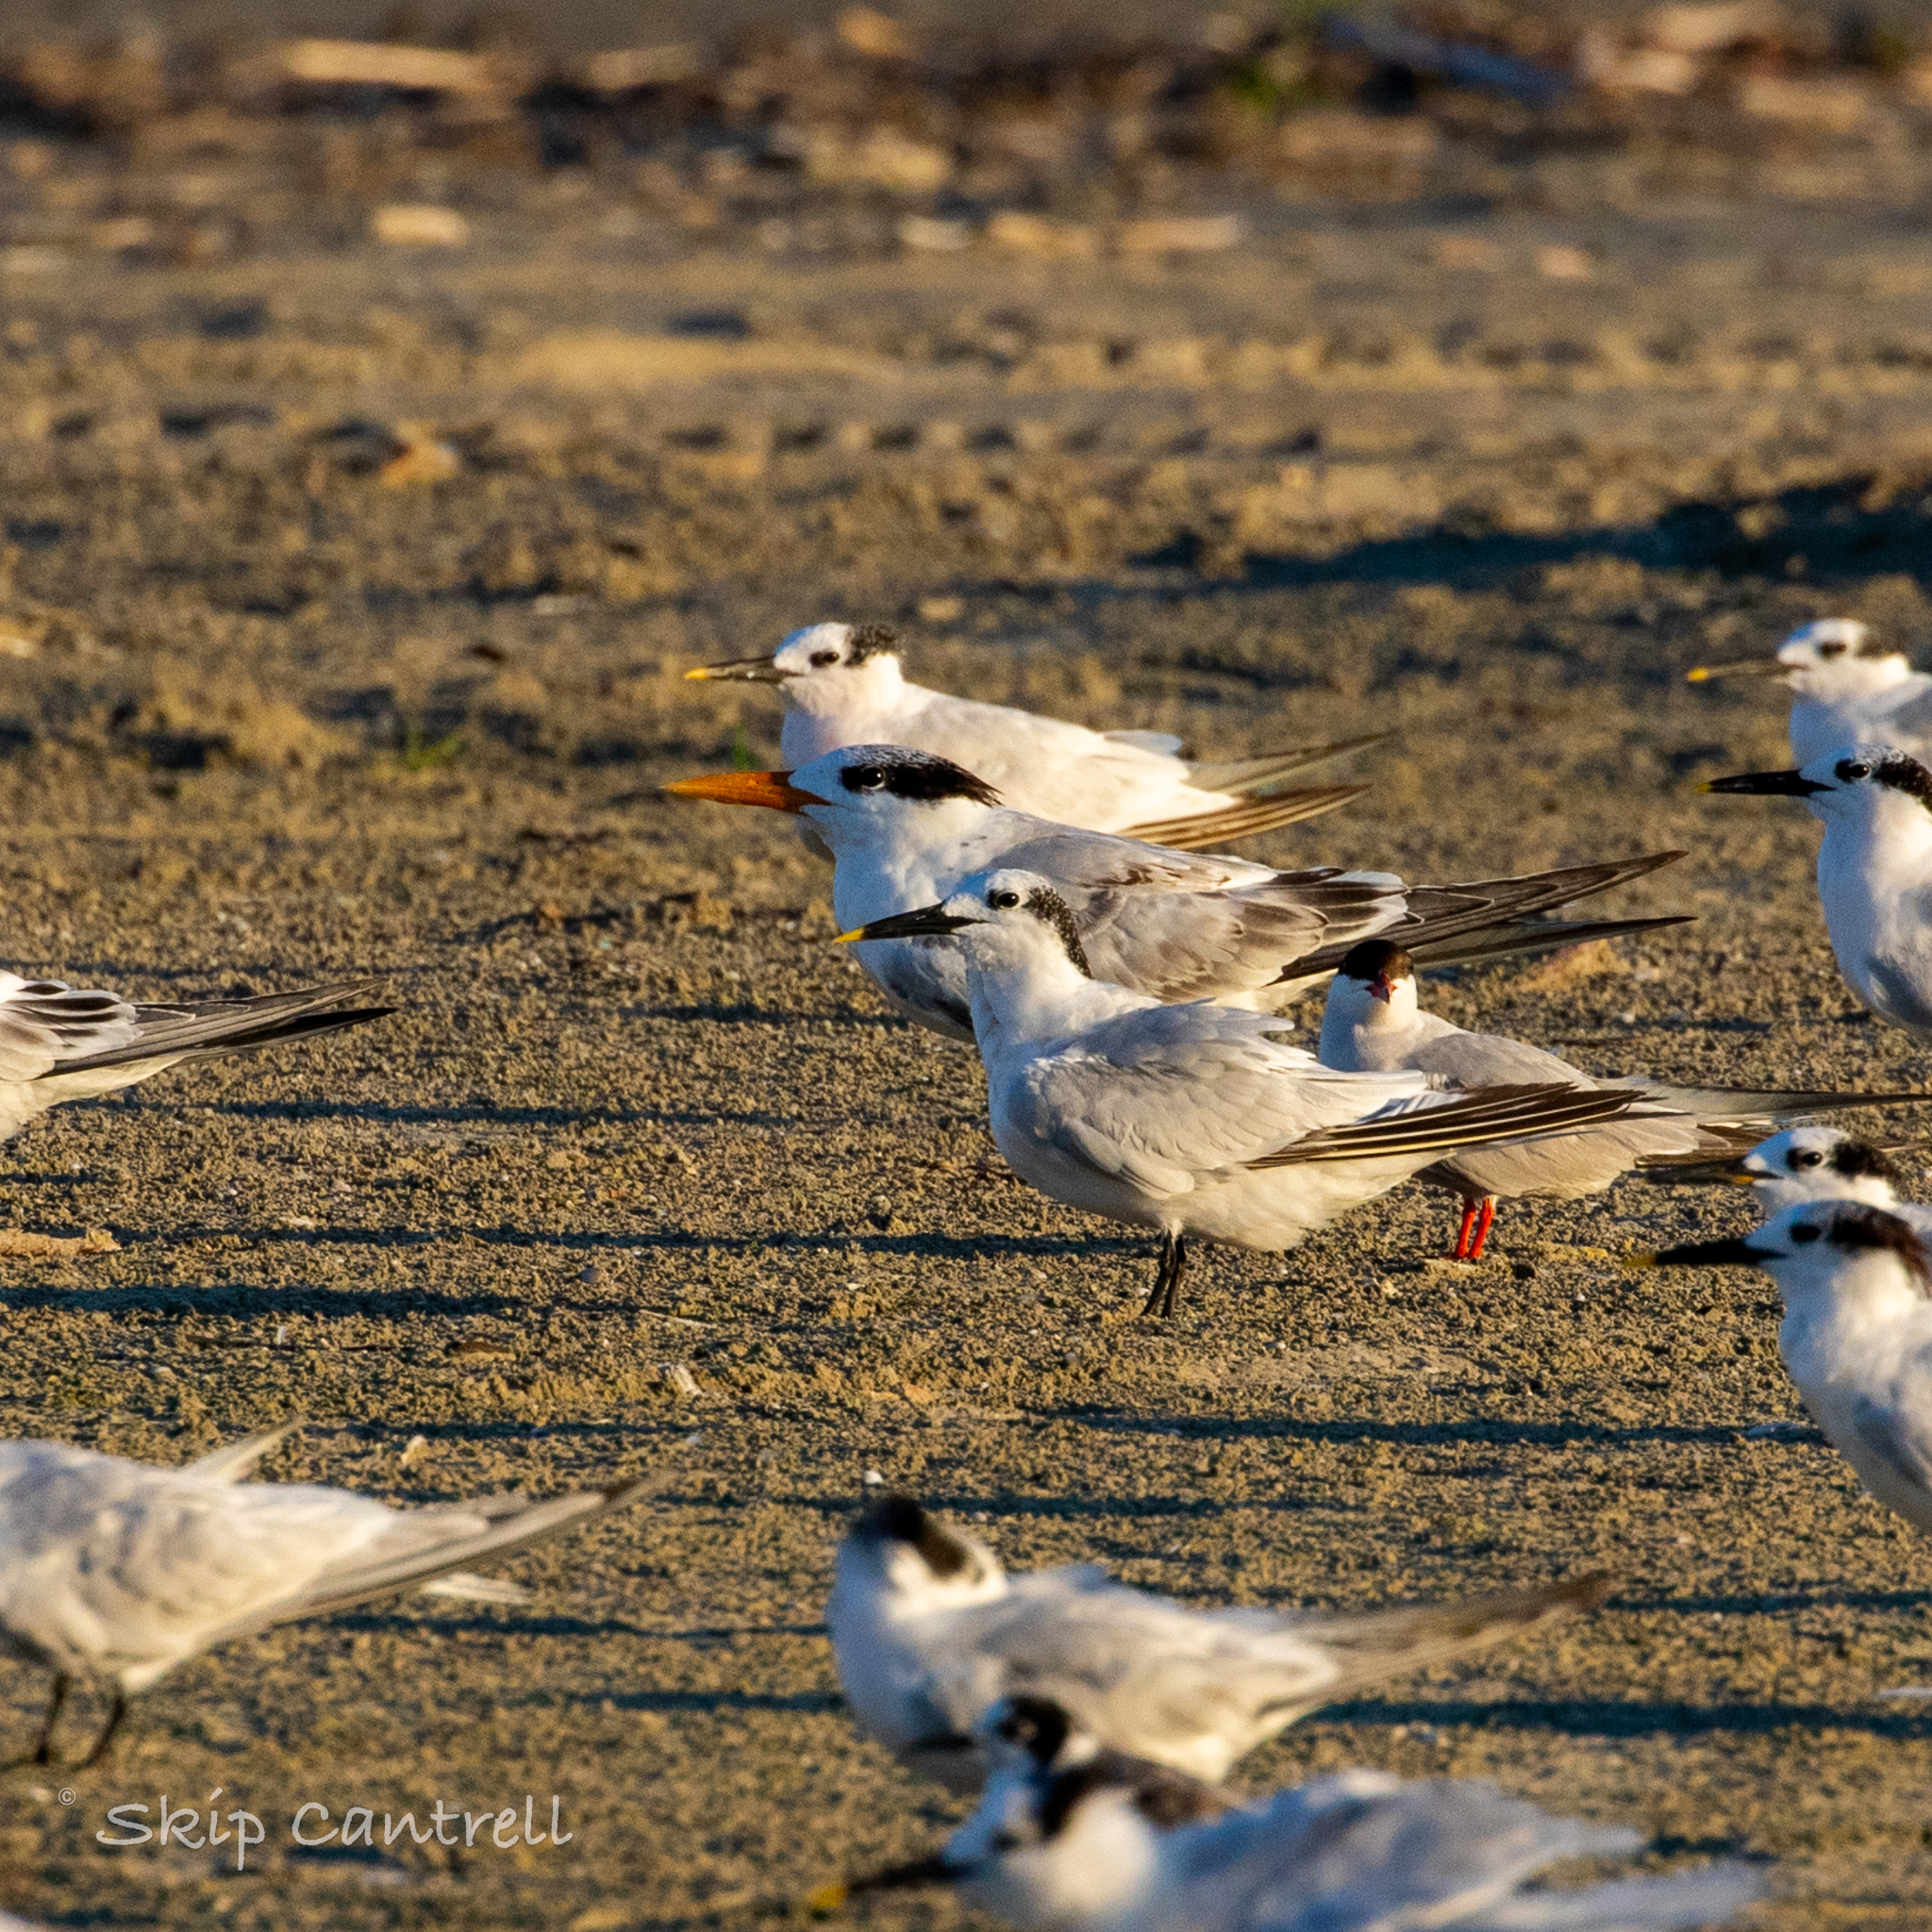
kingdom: Animalia
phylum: Chordata
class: Aves
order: Charadriiformes
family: Laridae
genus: Thalasseus
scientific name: Thalasseus sandvicensis
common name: Sandwich tern
